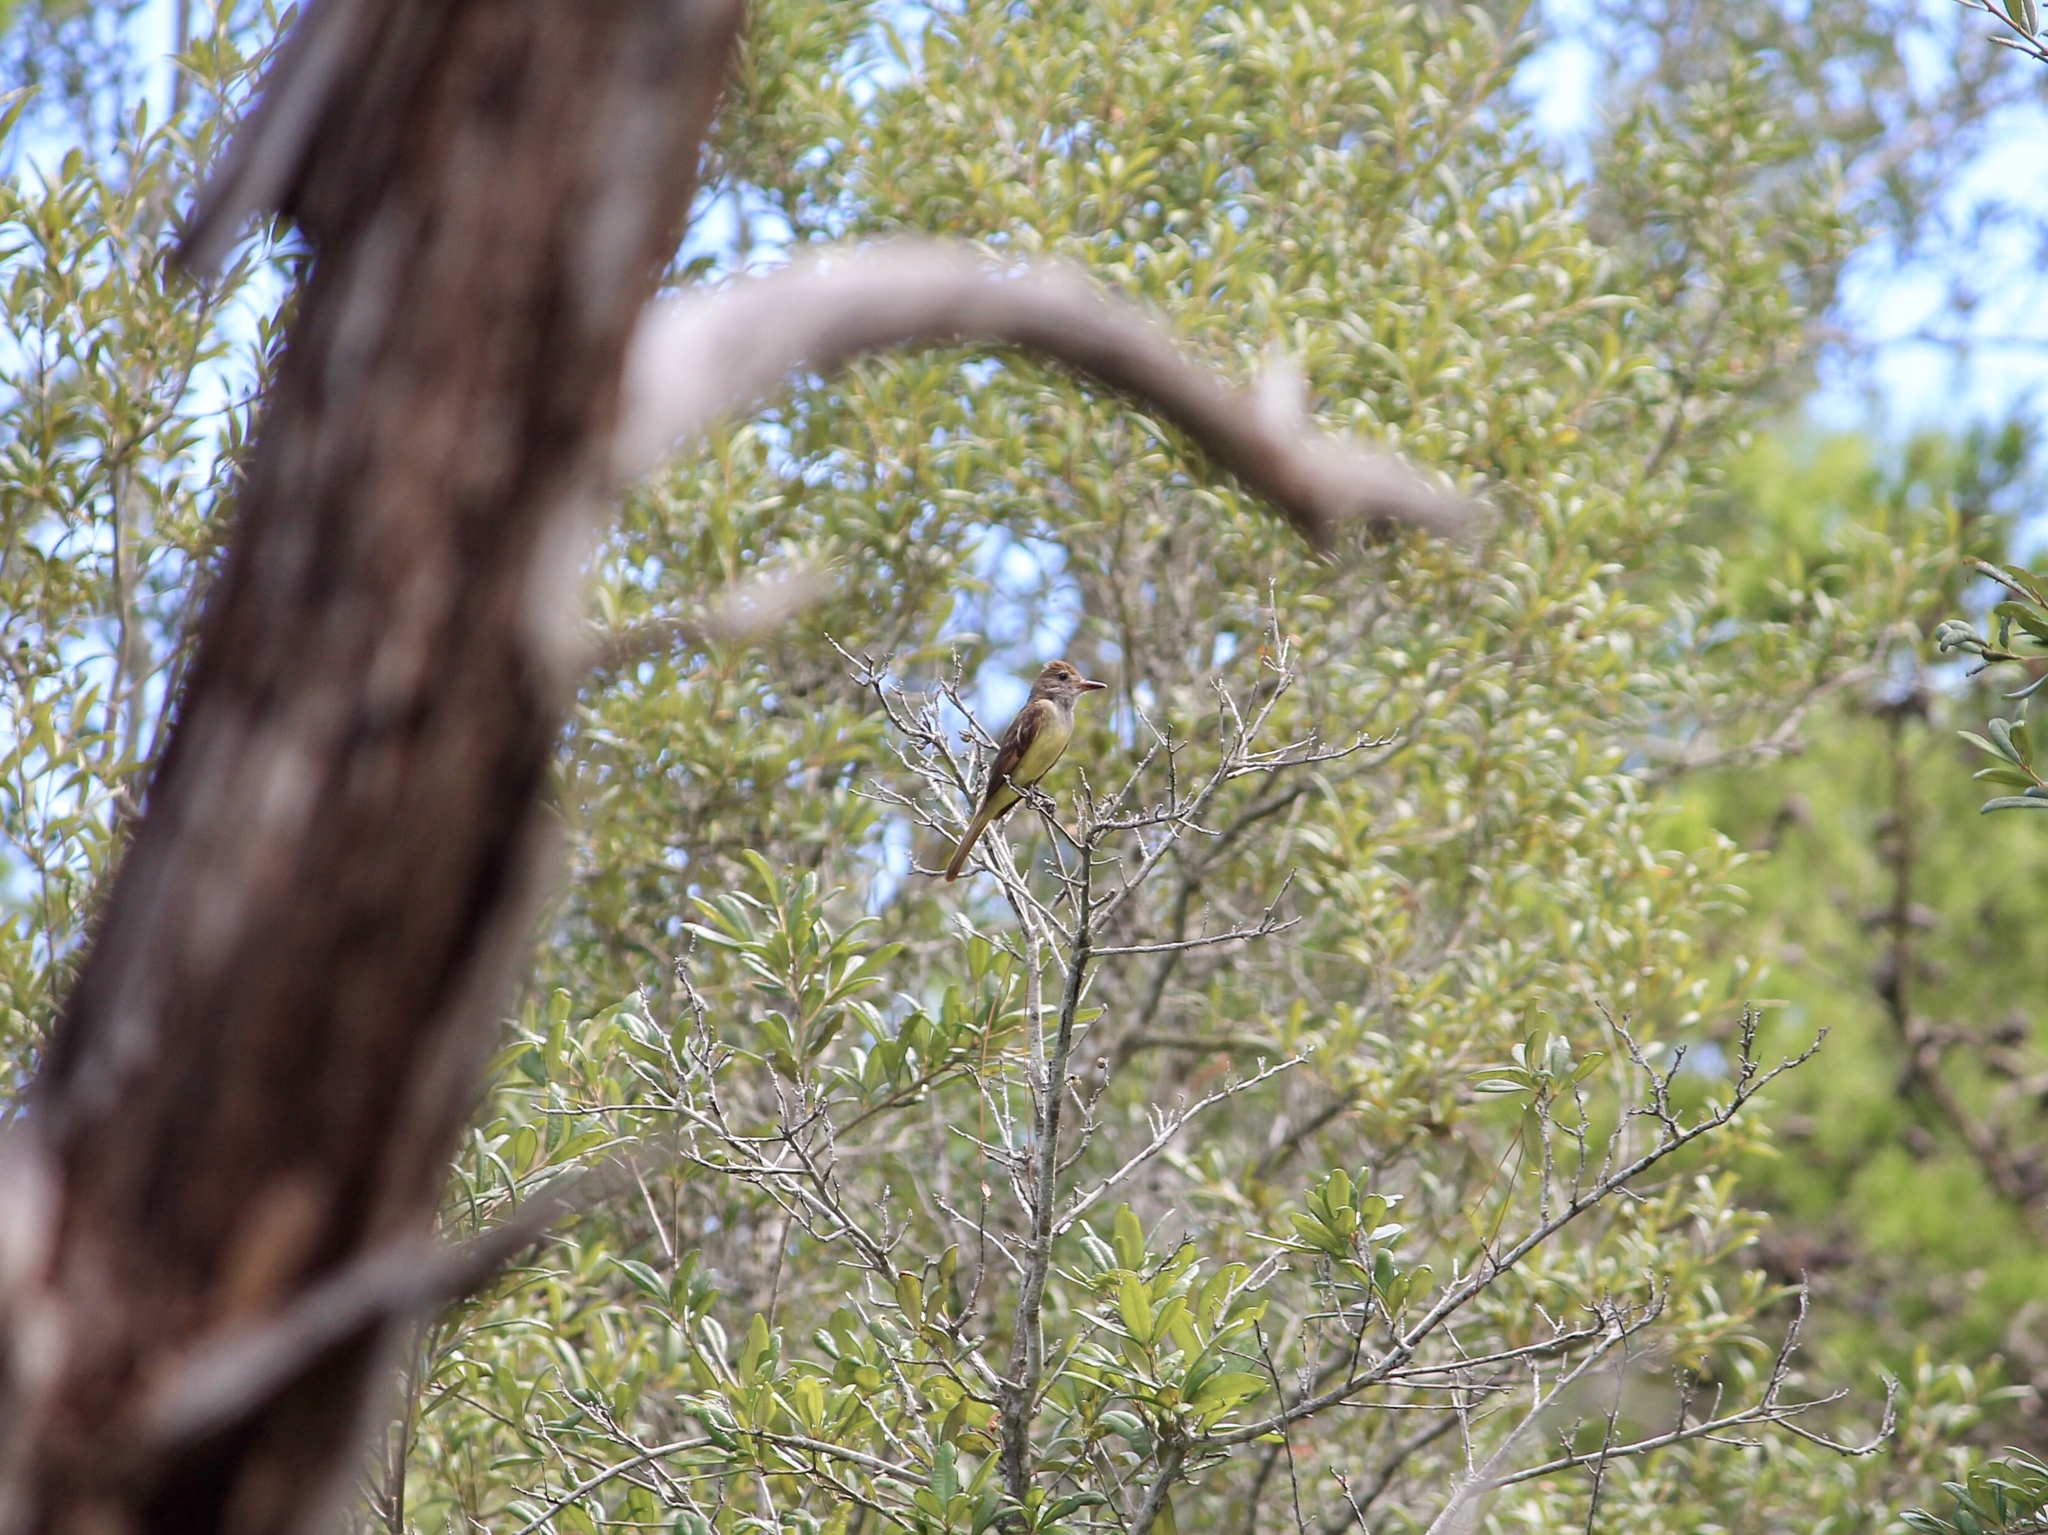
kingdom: Animalia
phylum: Chordata
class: Aves
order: Passeriformes
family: Tyrannidae
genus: Myiarchus
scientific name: Myiarchus crinitus
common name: Great crested flycatcher
